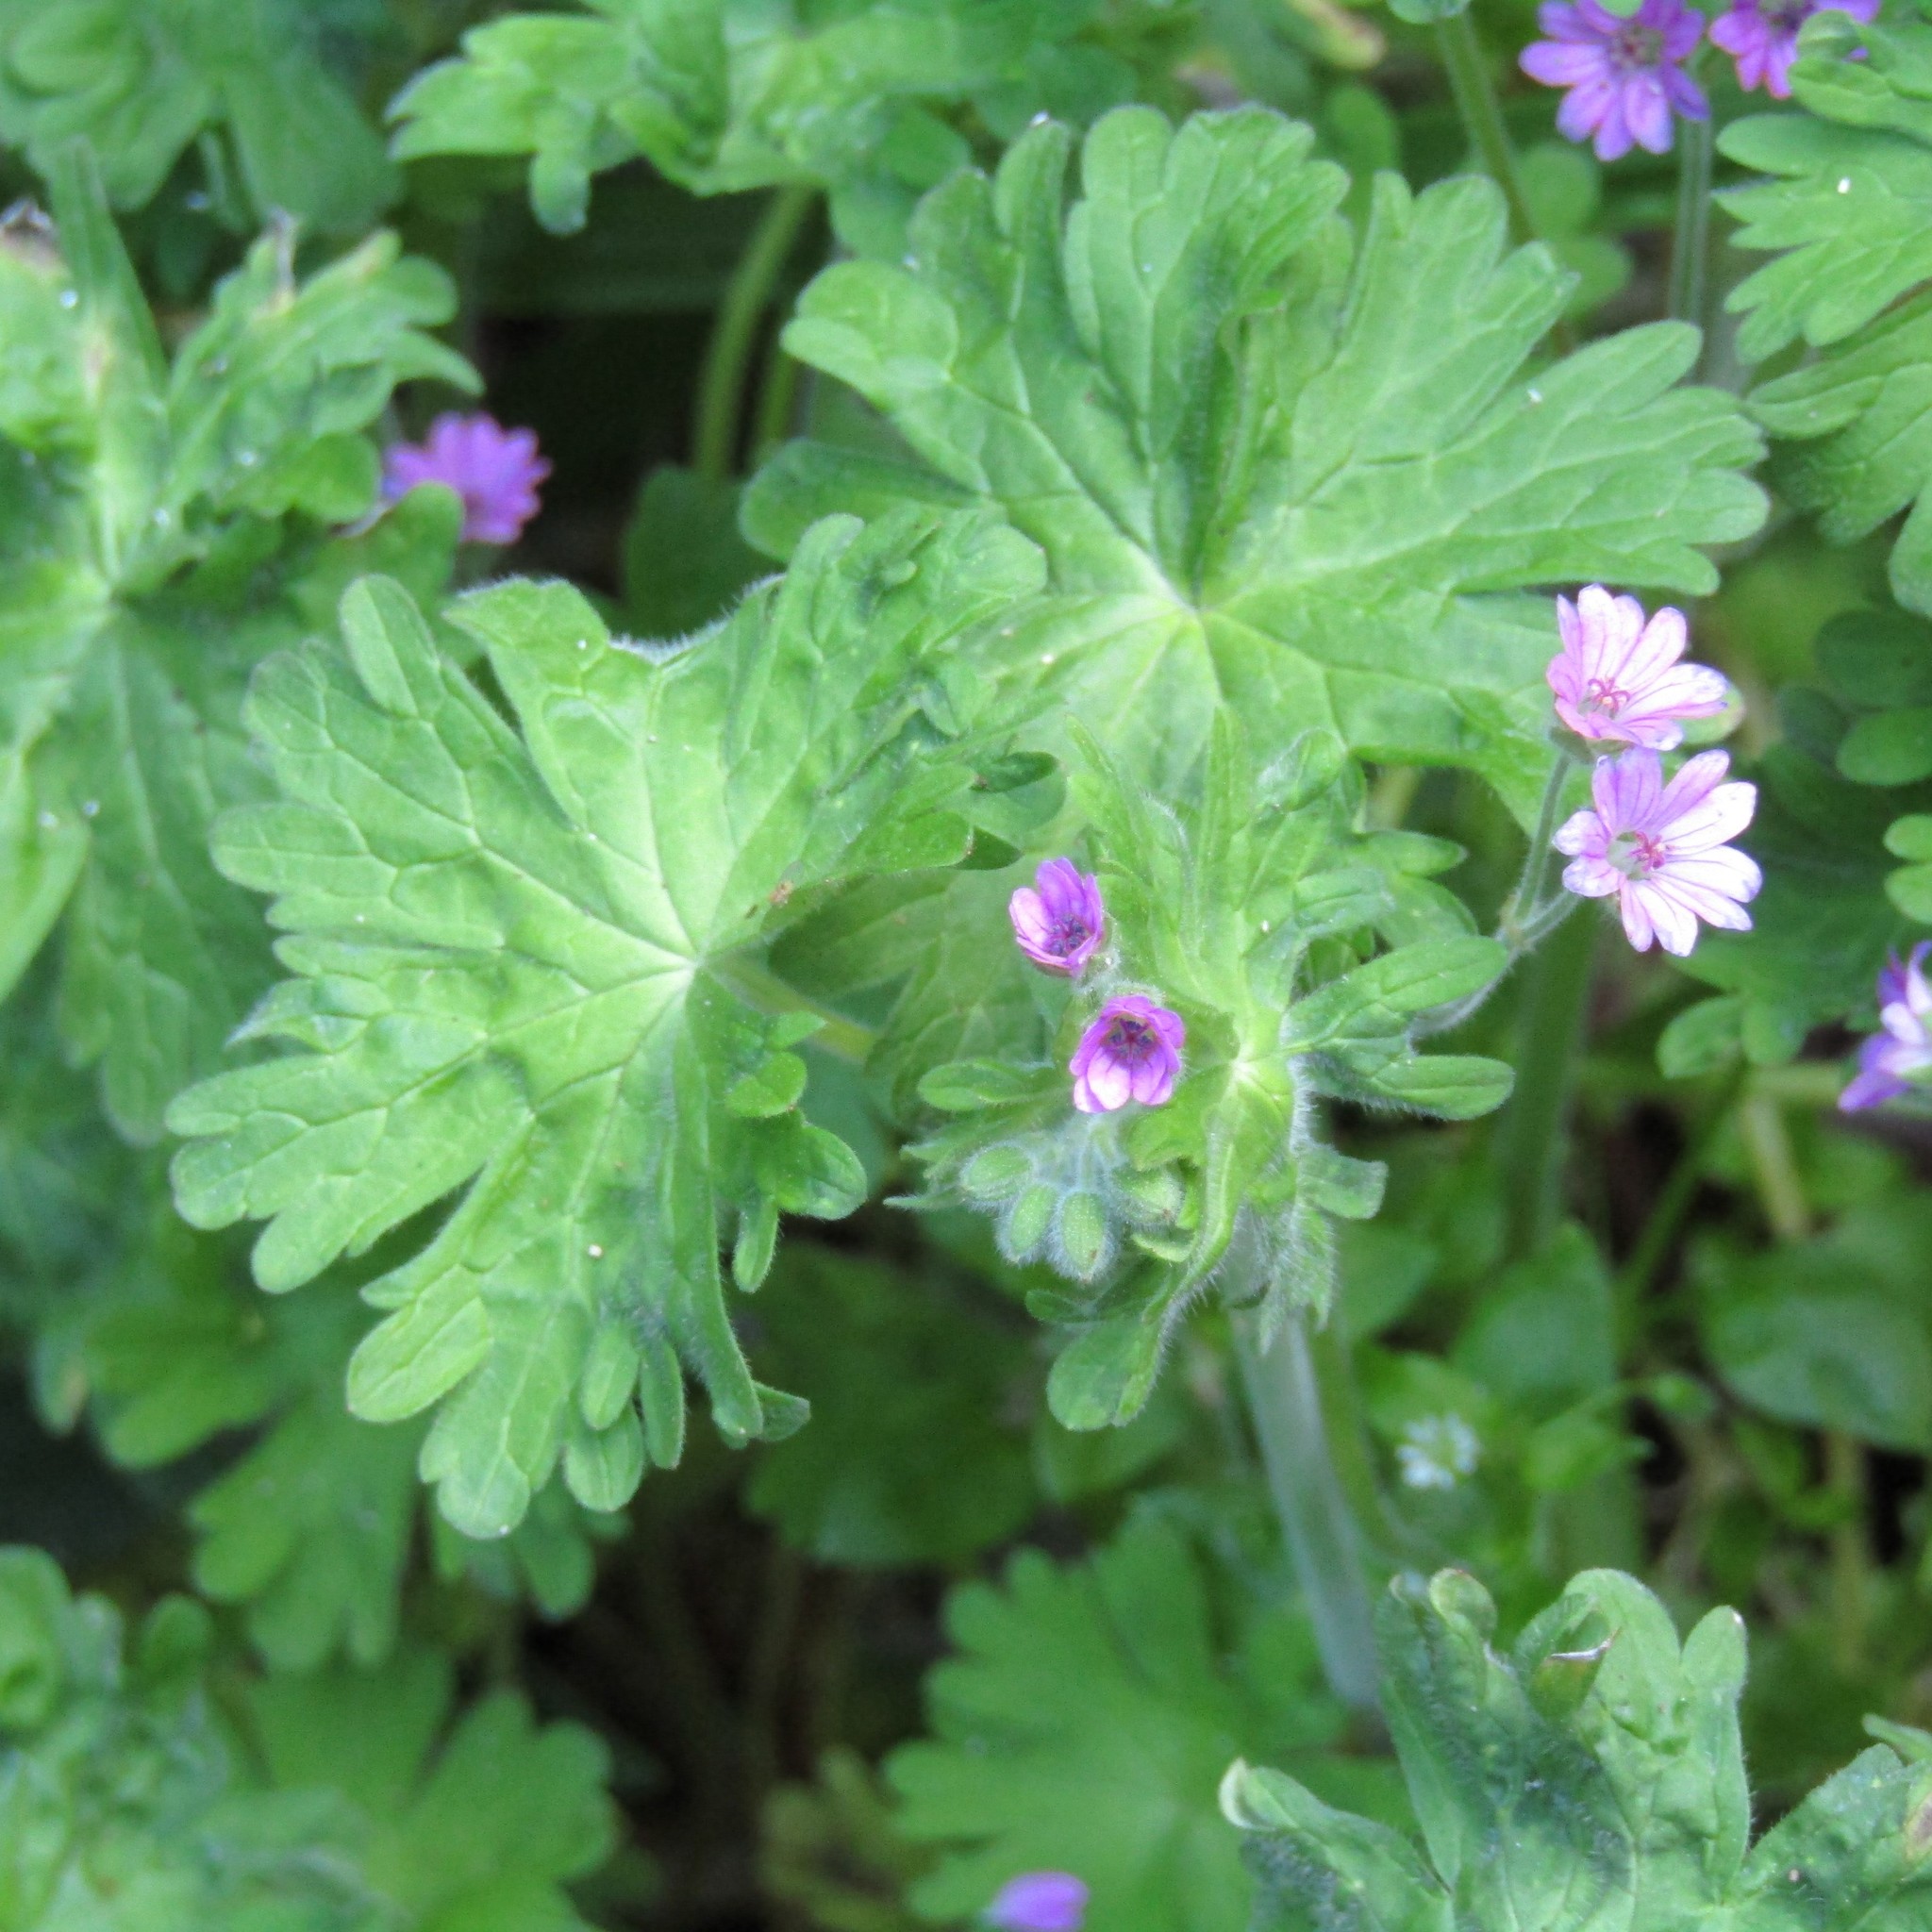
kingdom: Plantae
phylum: Tracheophyta
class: Magnoliopsida
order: Geraniales
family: Geraniaceae
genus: Geranium
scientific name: Geranium molle
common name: Dove's-foot crane's-bill
